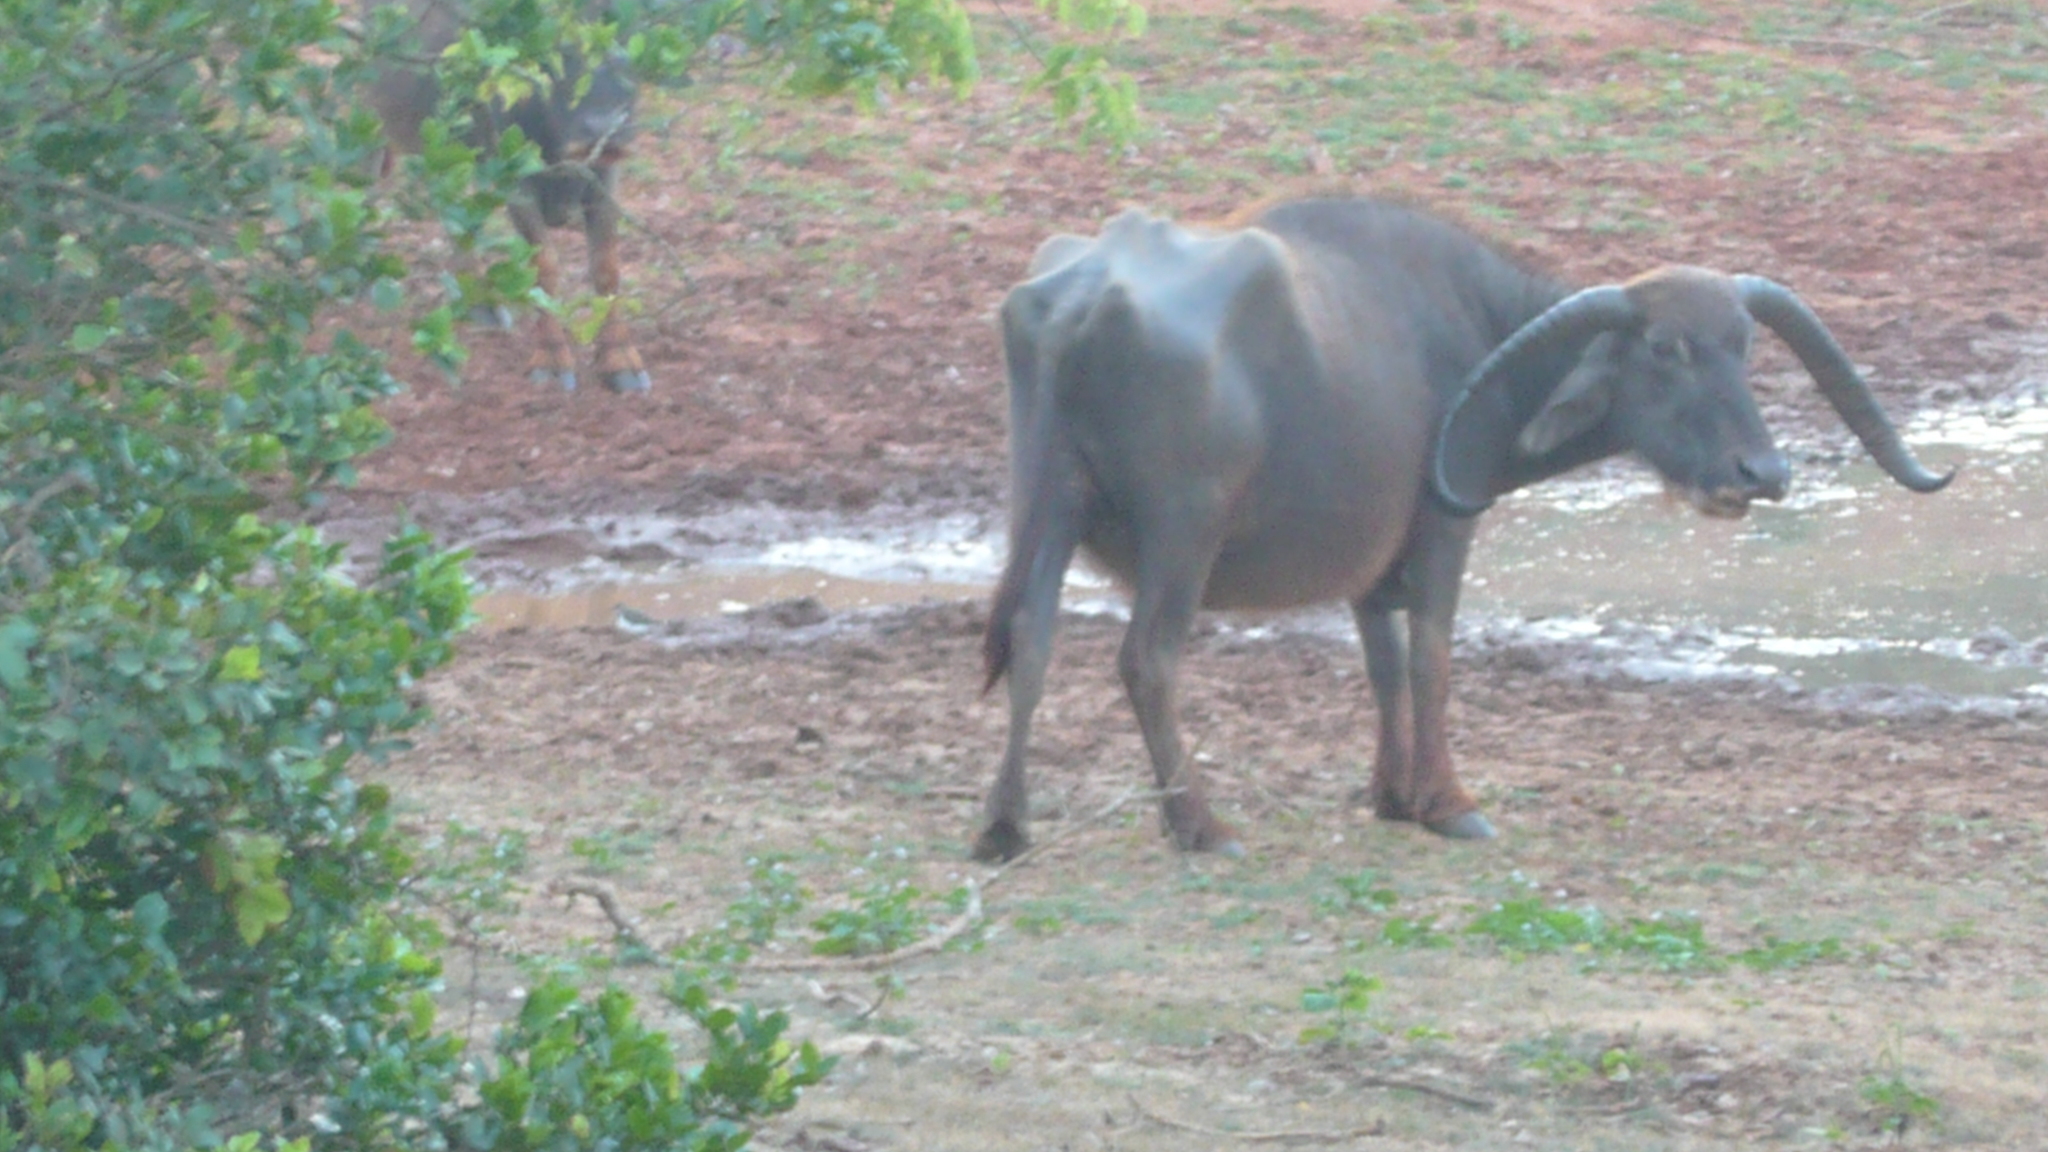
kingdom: Animalia
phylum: Chordata
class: Mammalia
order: Artiodactyla
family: Bovidae
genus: Bubalus
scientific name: Bubalus bubalis
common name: Water buffalo
